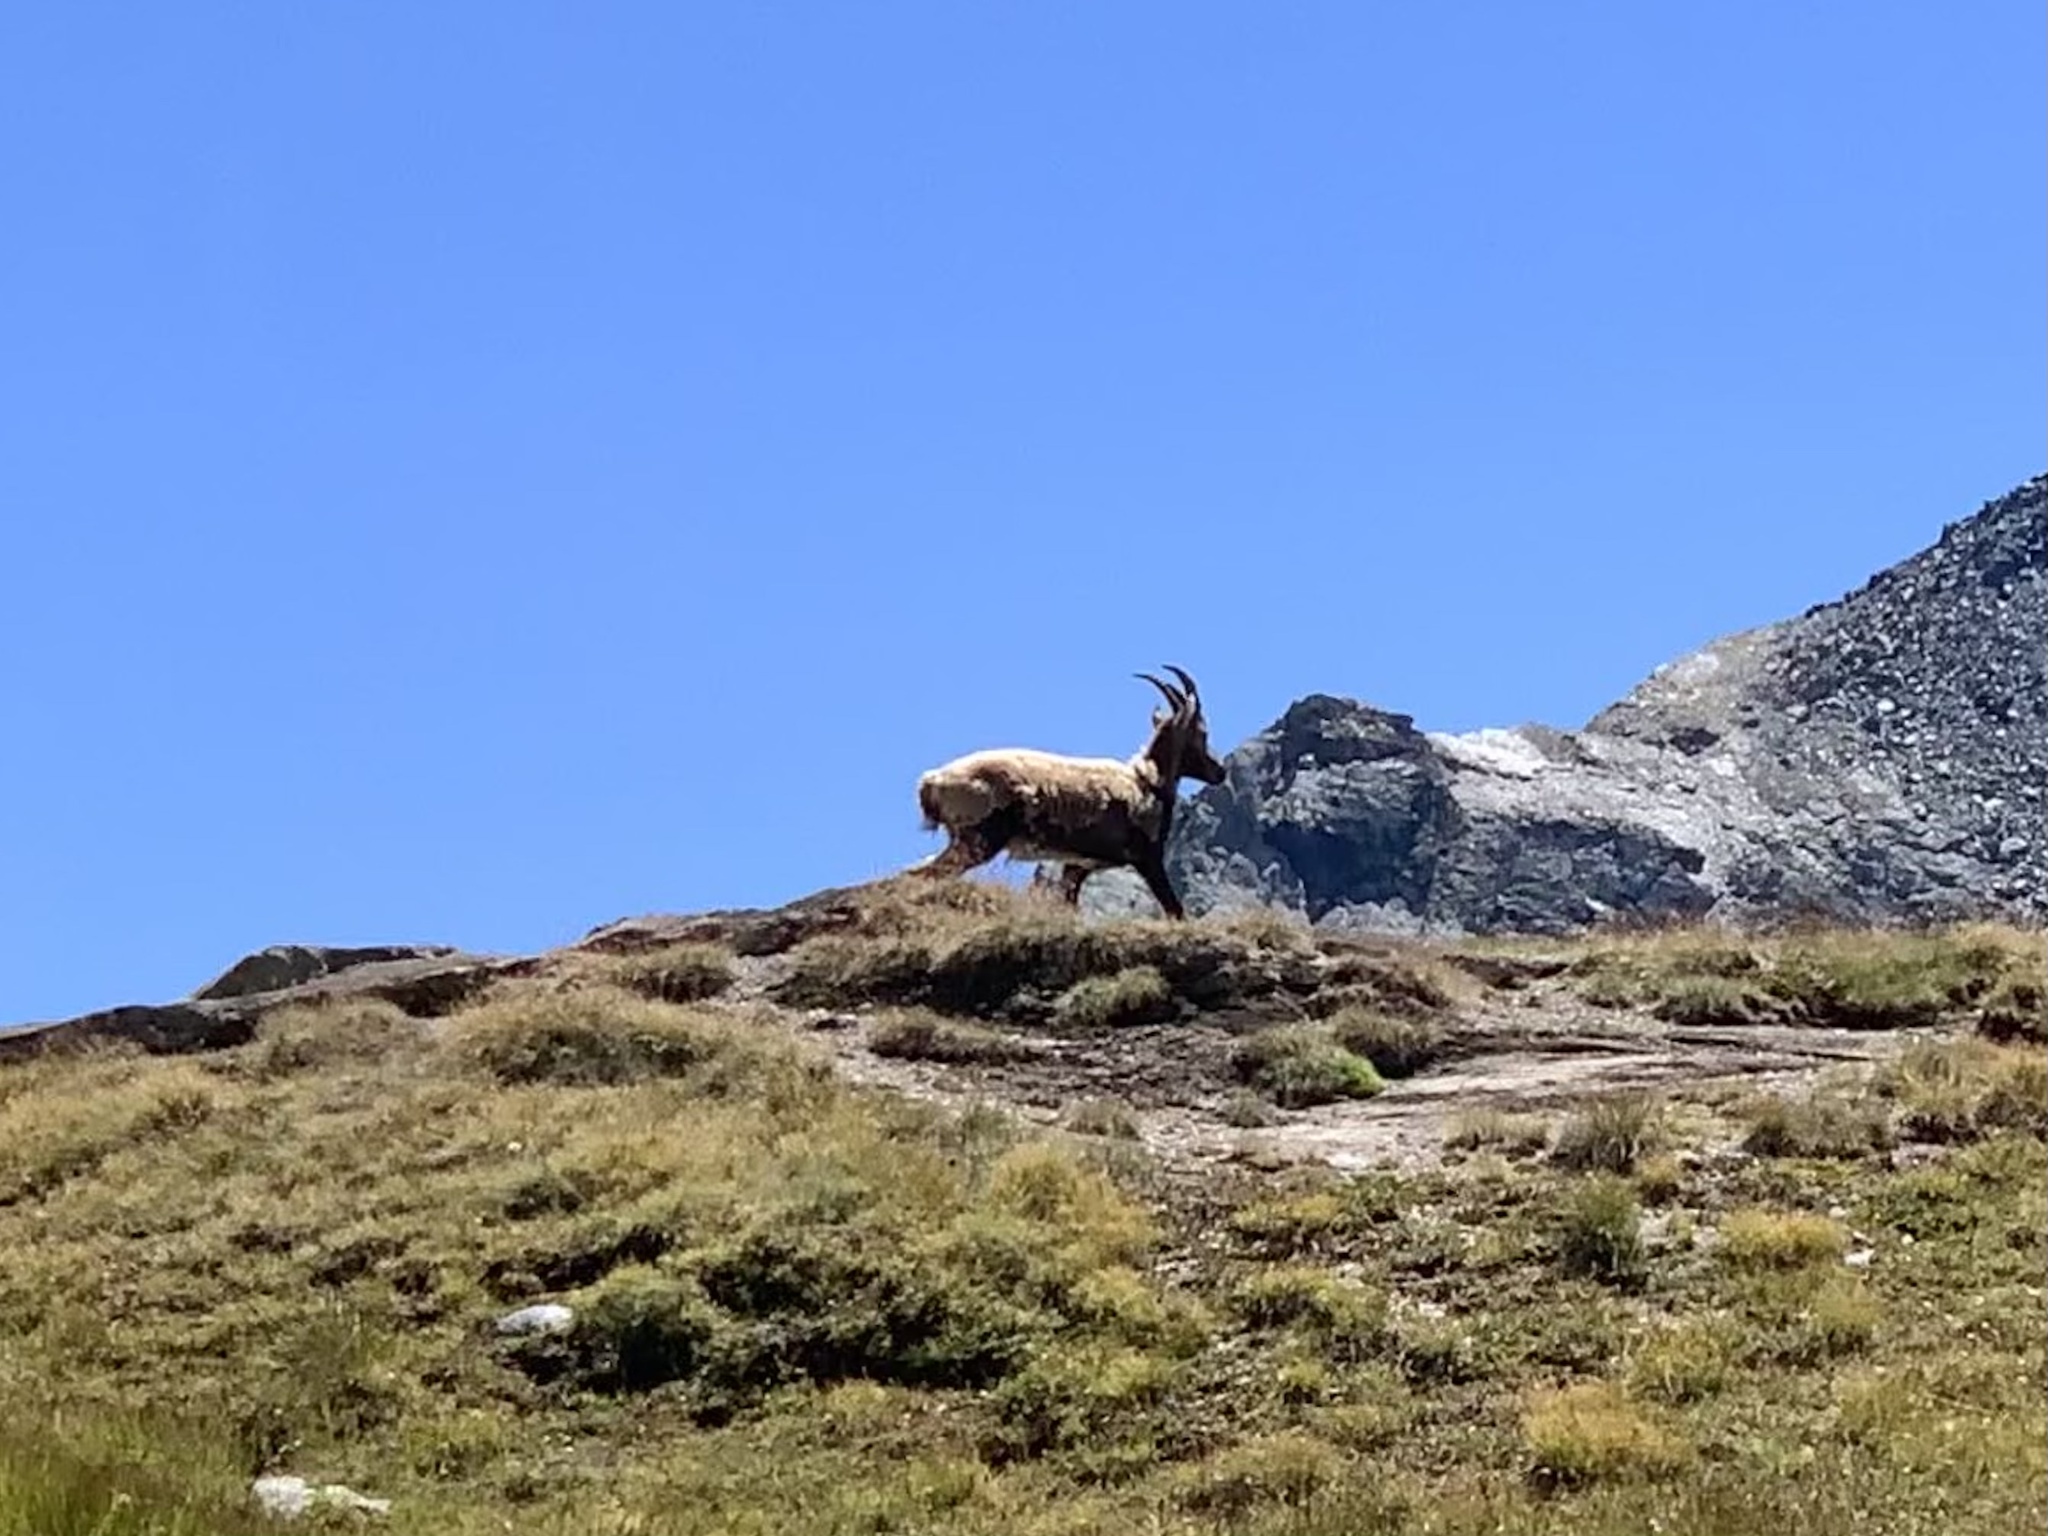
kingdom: Animalia
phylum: Chordata
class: Mammalia
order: Artiodactyla
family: Bovidae
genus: Capra
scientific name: Capra ibex
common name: Alpine ibex
